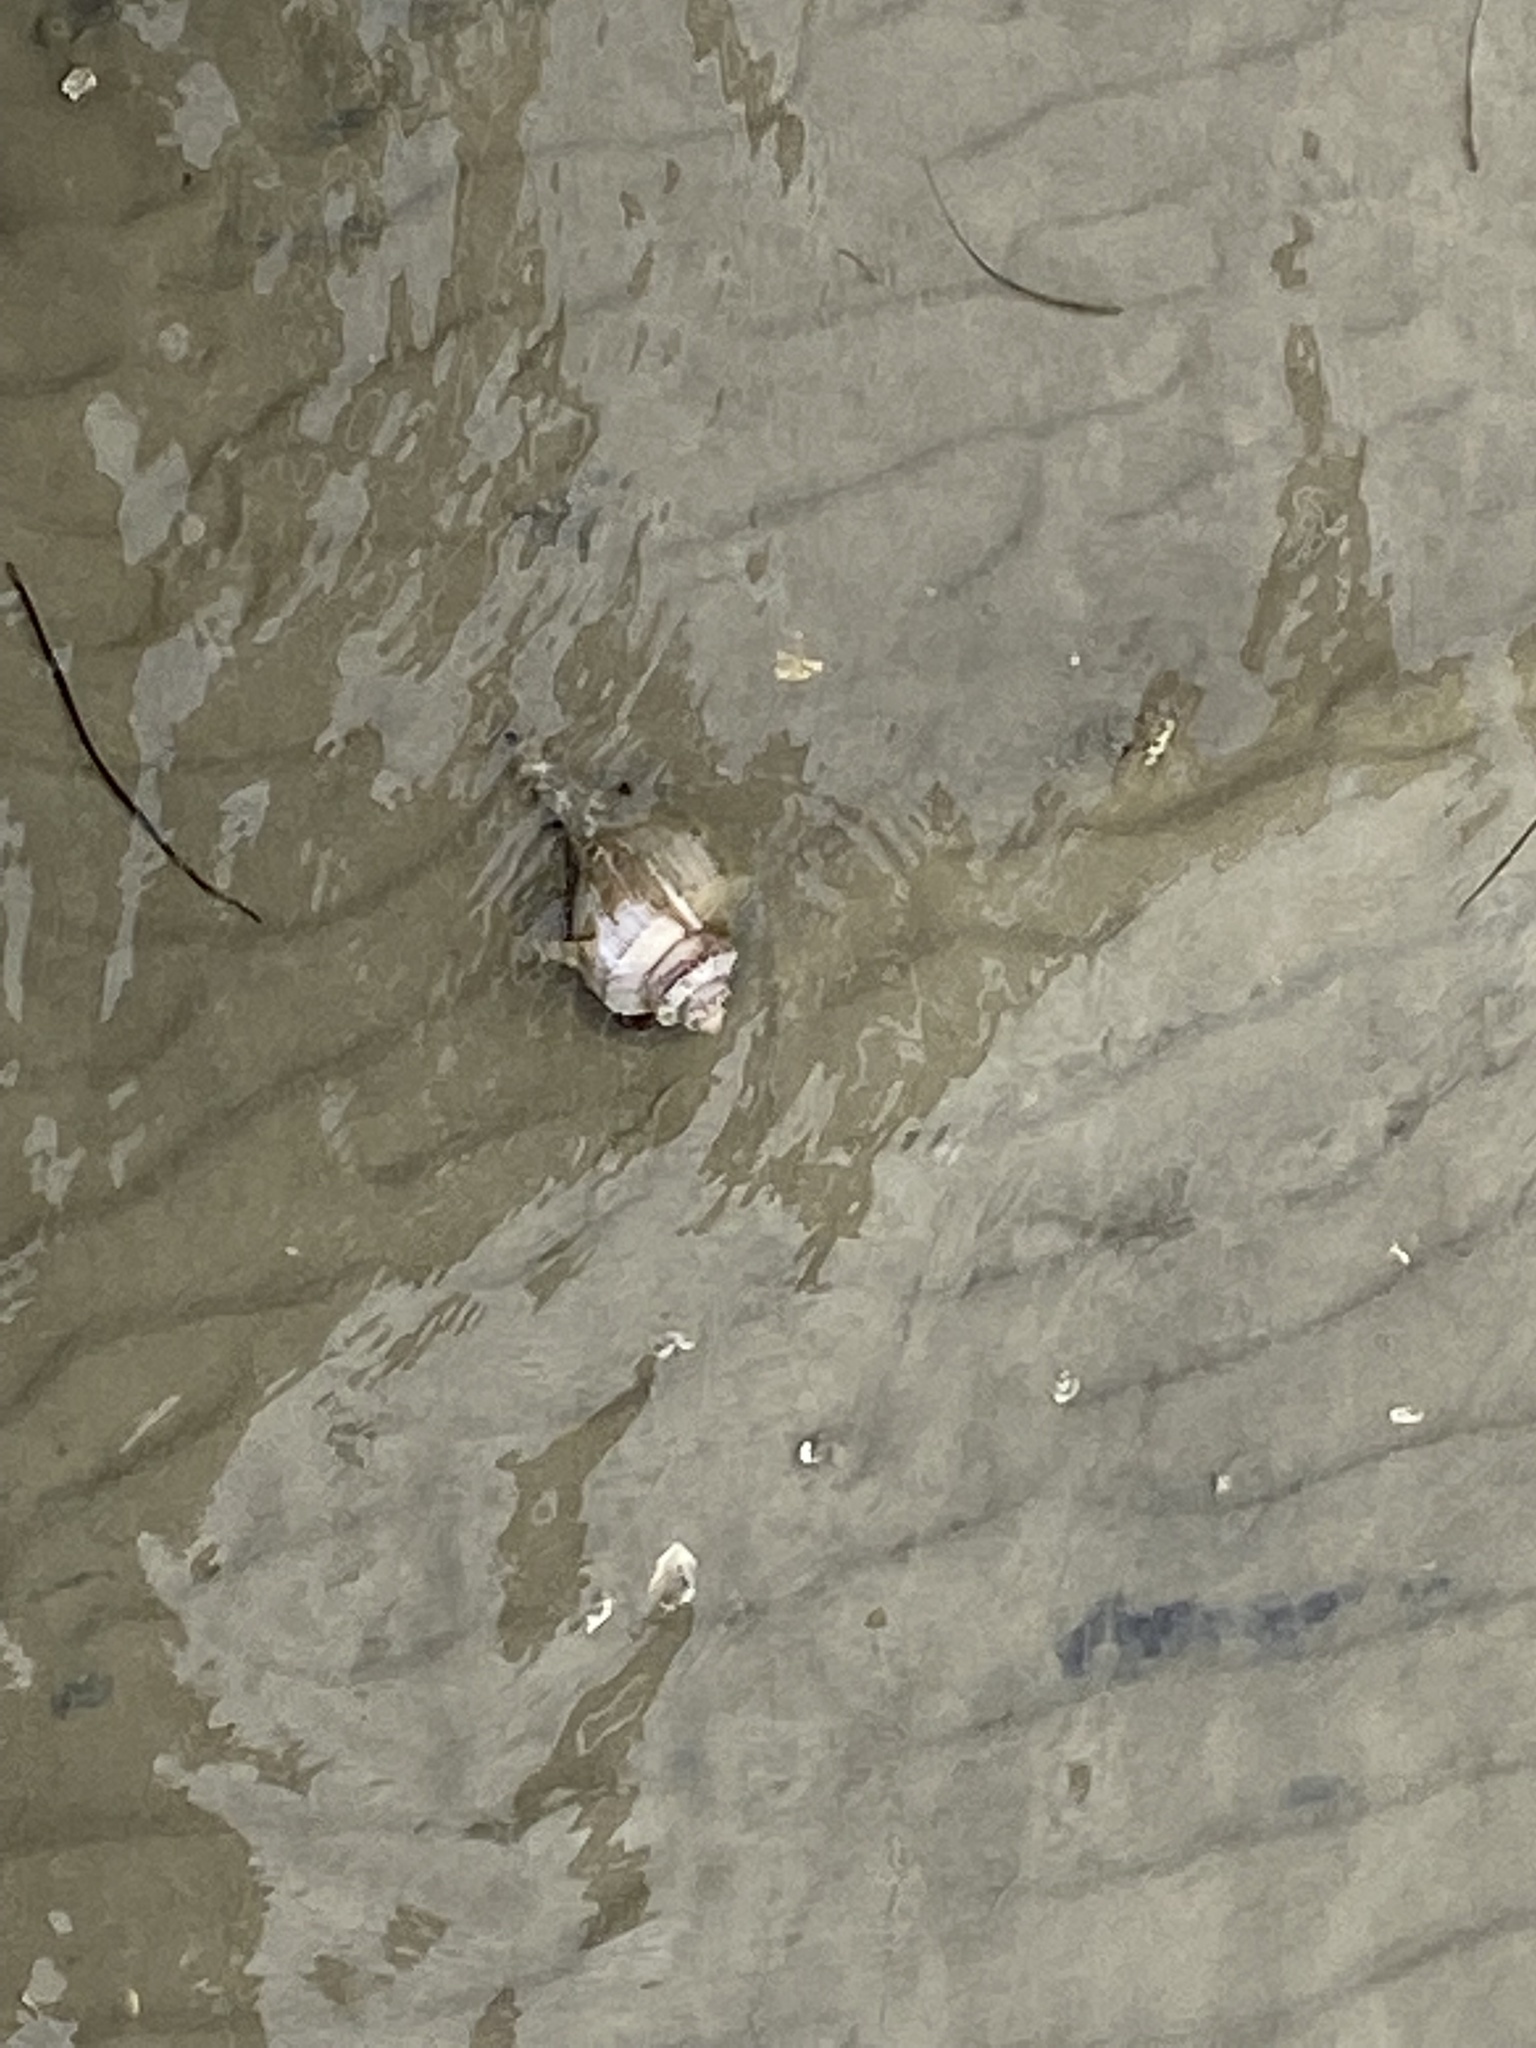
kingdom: Animalia
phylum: Mollusca
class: Gastropoda
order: Neogastropoda
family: Busyconidae
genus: Busycotypus
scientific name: Busycotypus canaliculatus
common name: Channeled whelk
